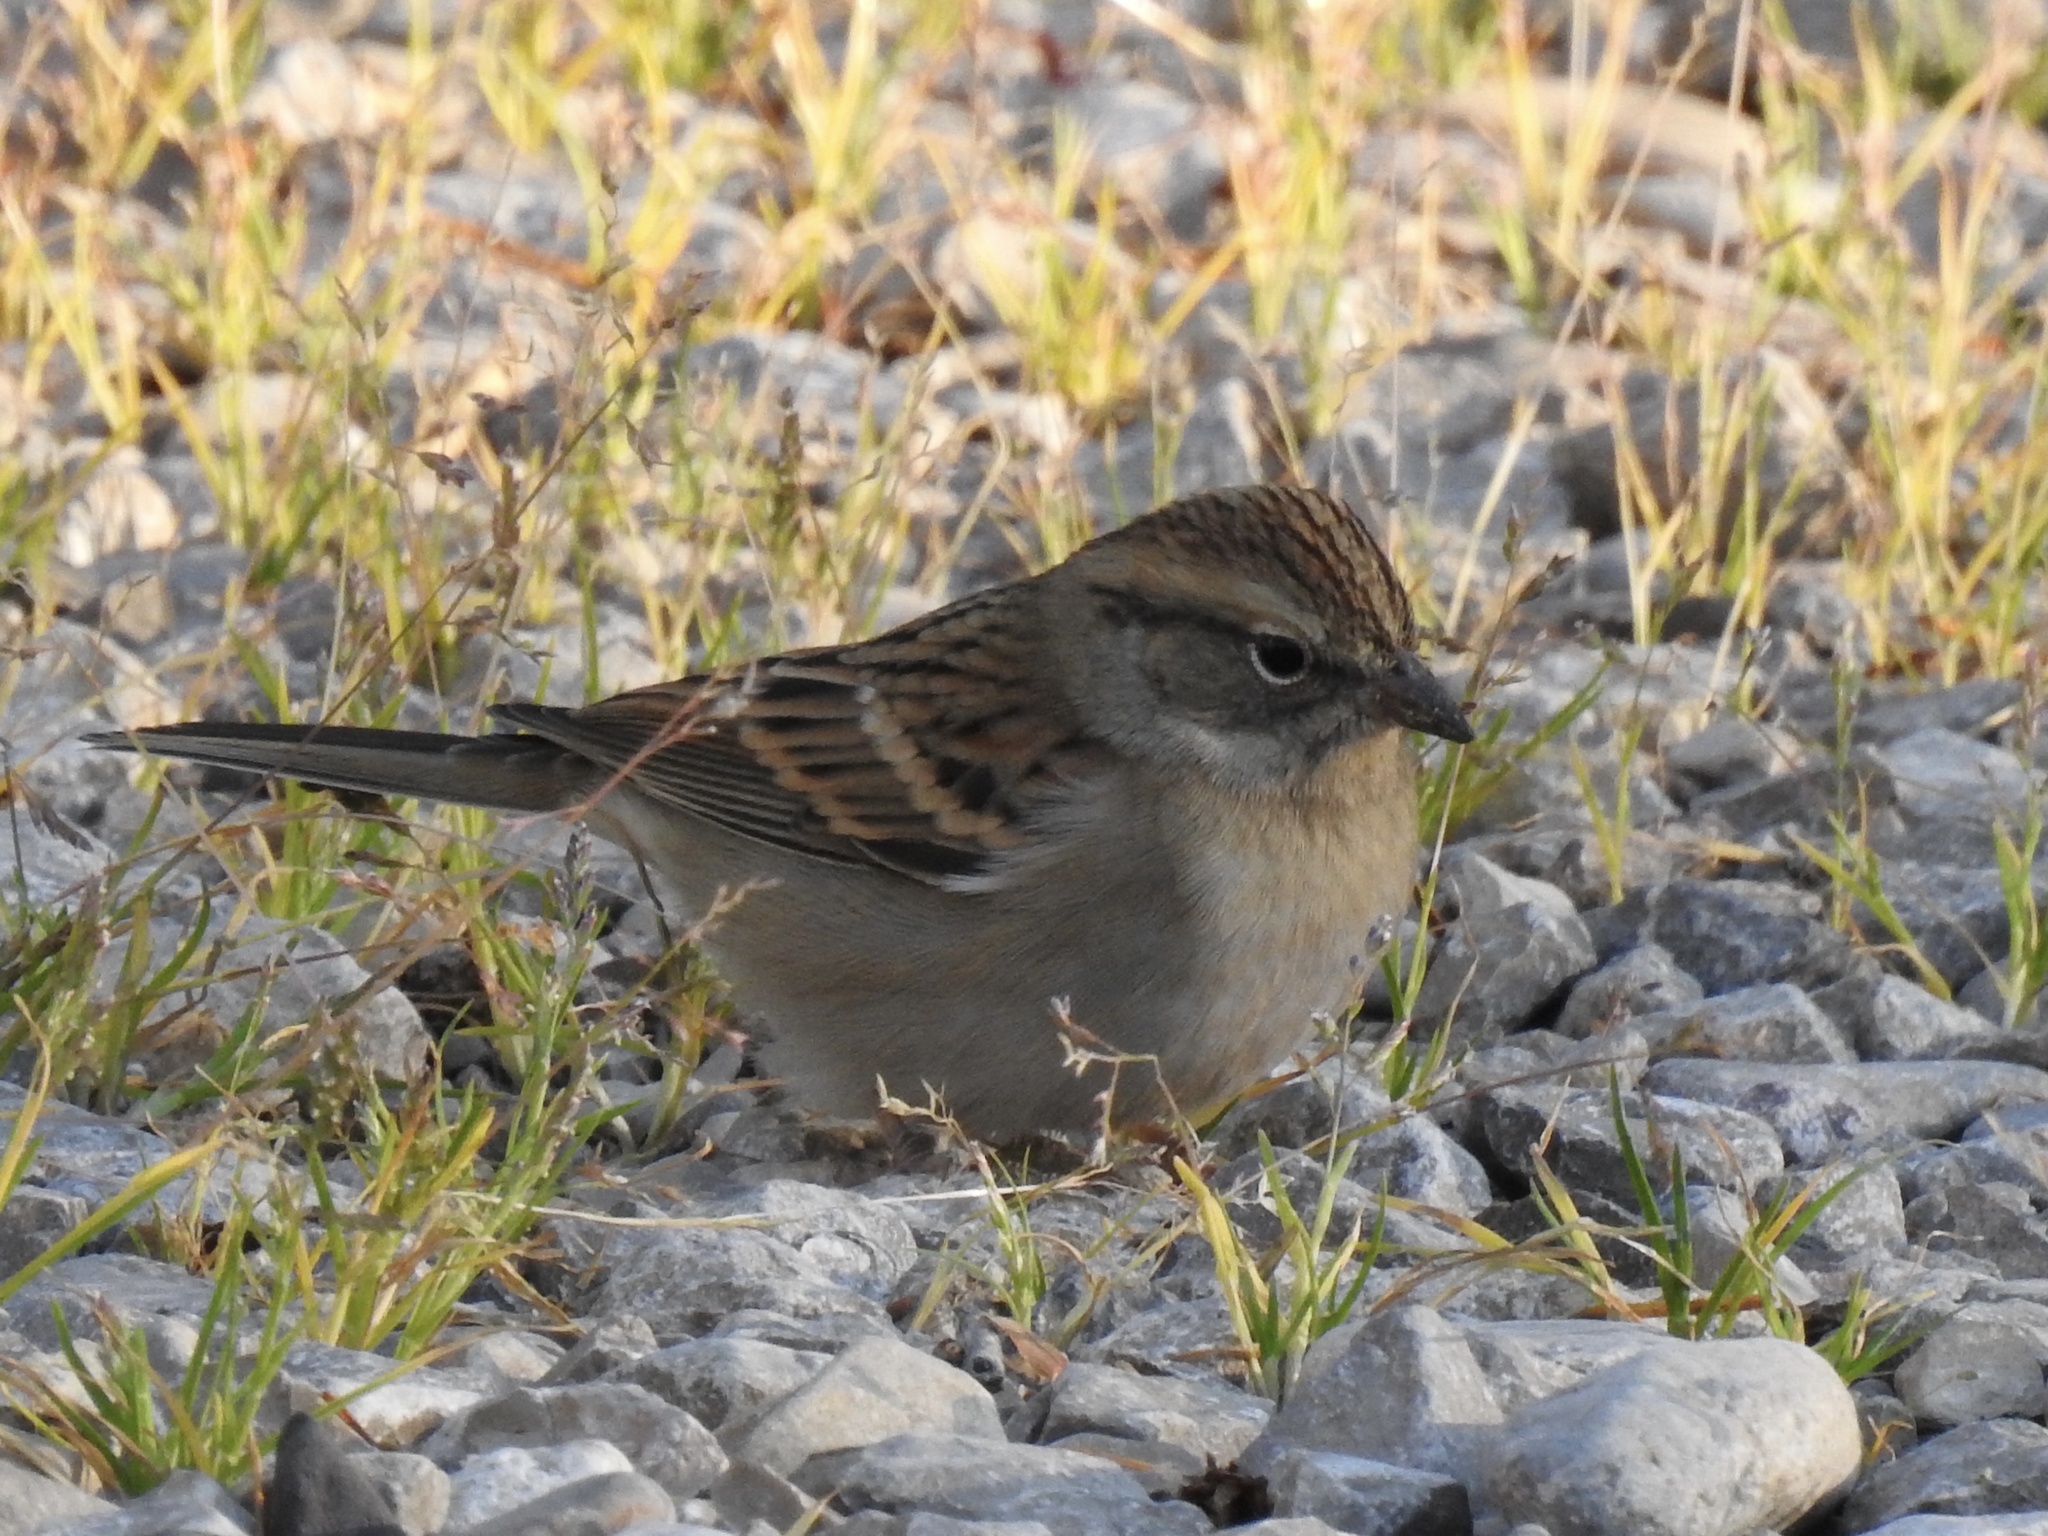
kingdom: Animalia
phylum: Chordata
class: Aves
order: Passeriformes
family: Passerellidae
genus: Spizella
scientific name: Spizella passerina
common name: Chipping sparrow
